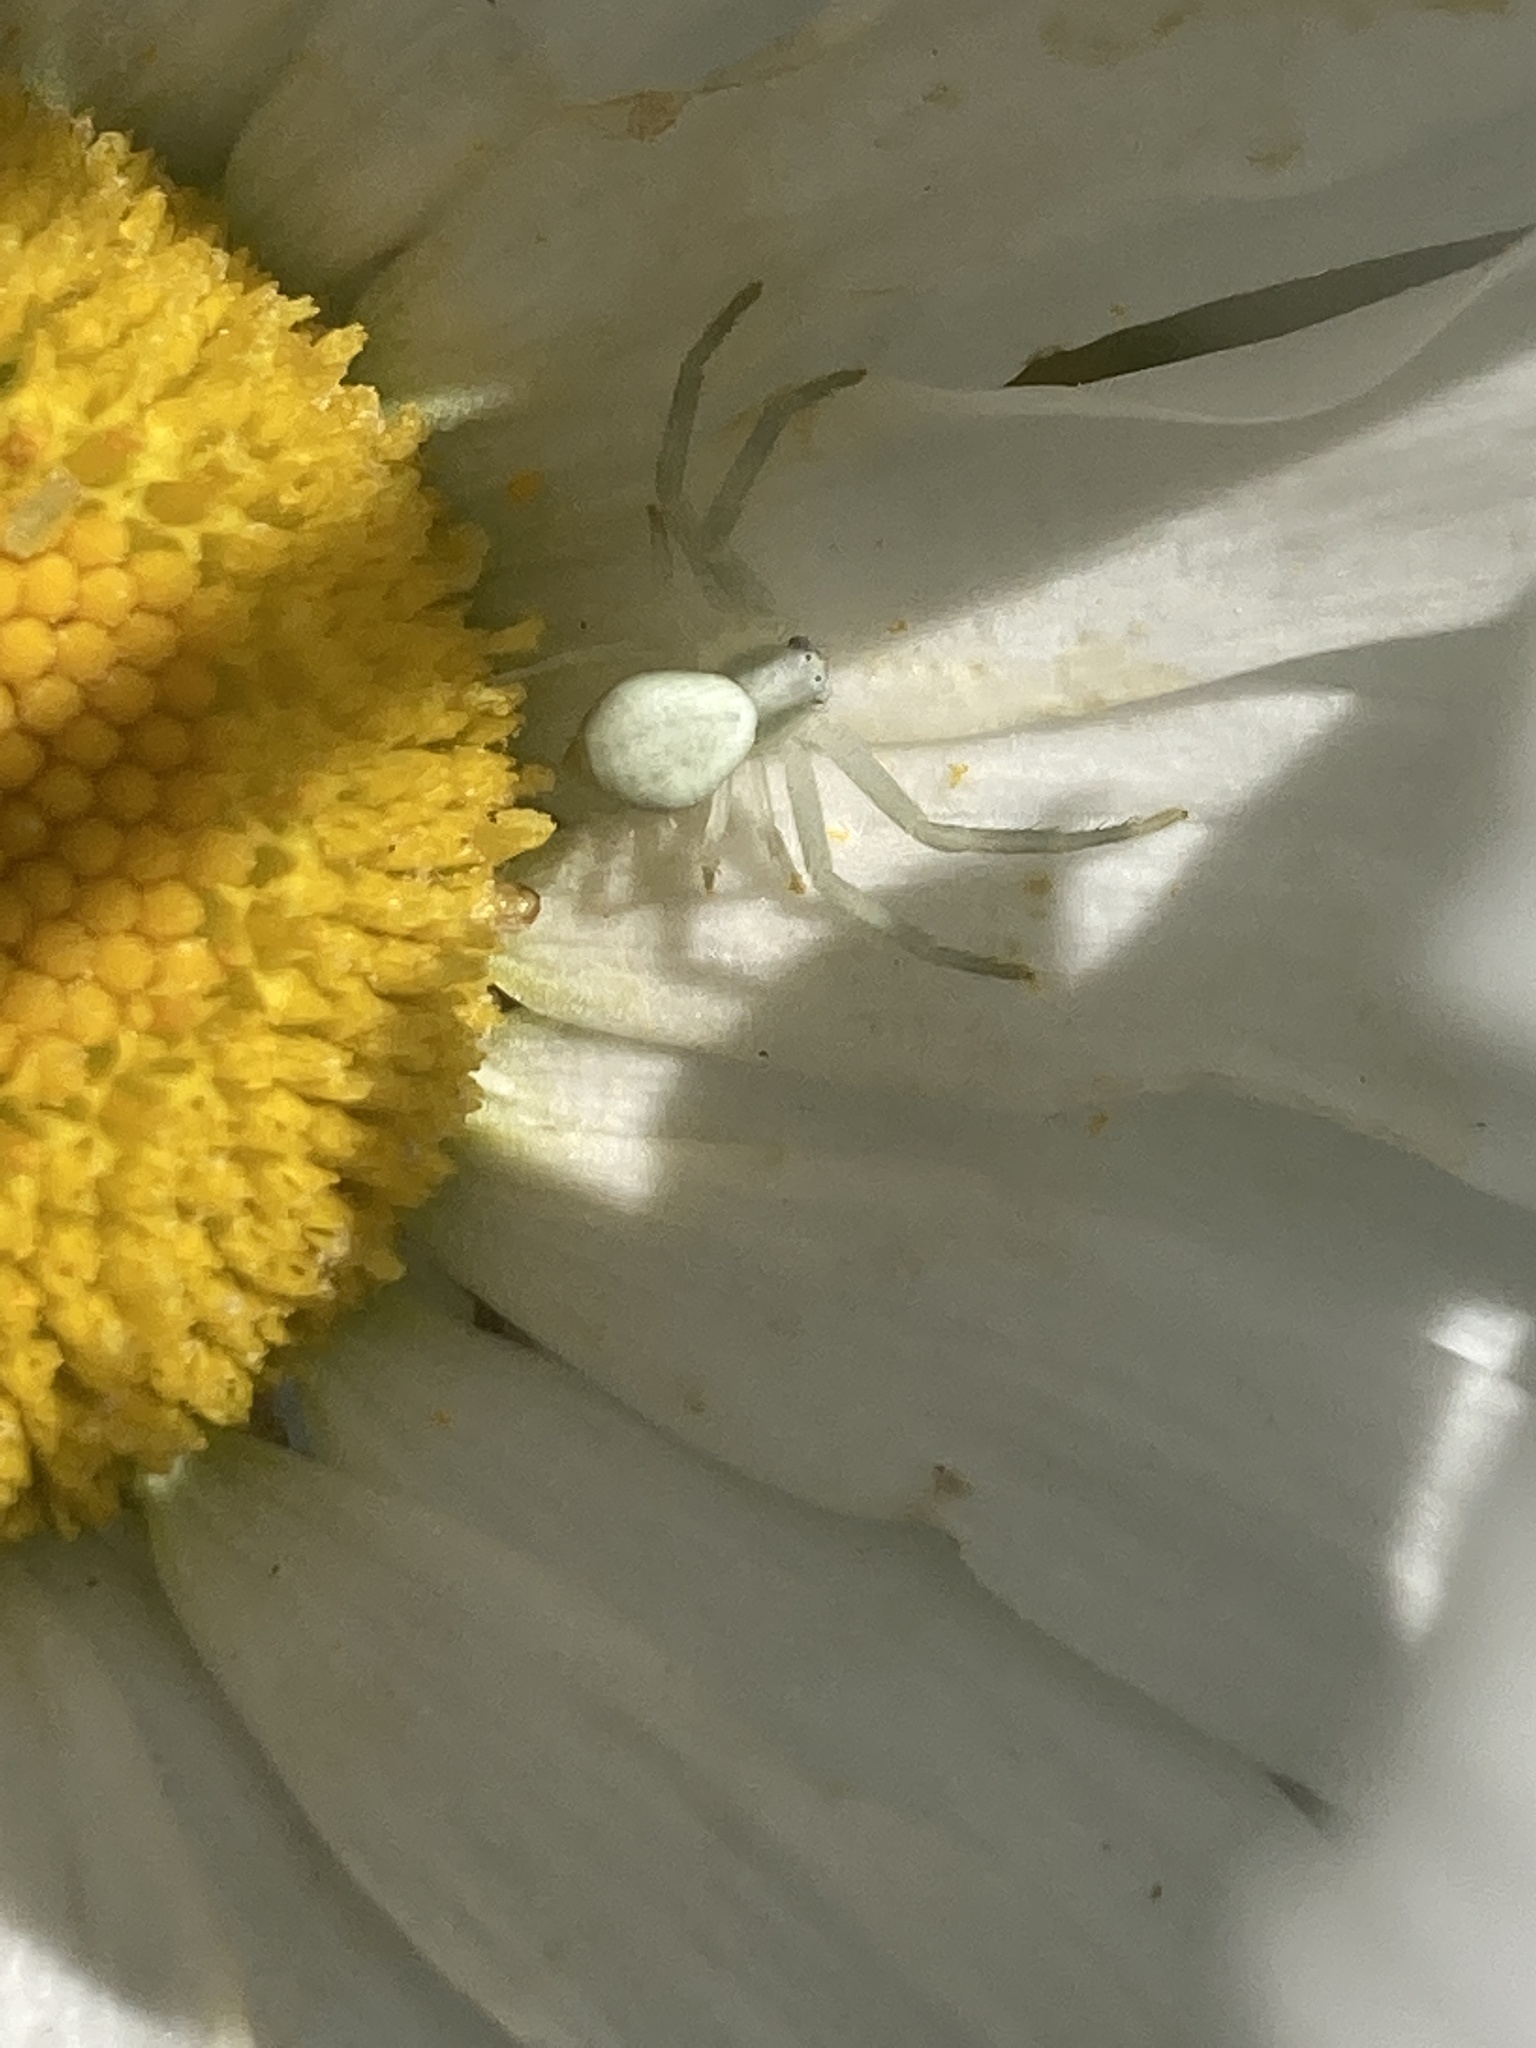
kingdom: Animalia
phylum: Arthropoda
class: Arachnida
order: Araneae
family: Thomisidae
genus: Misumena
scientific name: Misumena vatia
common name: Goldenrod crab spider
